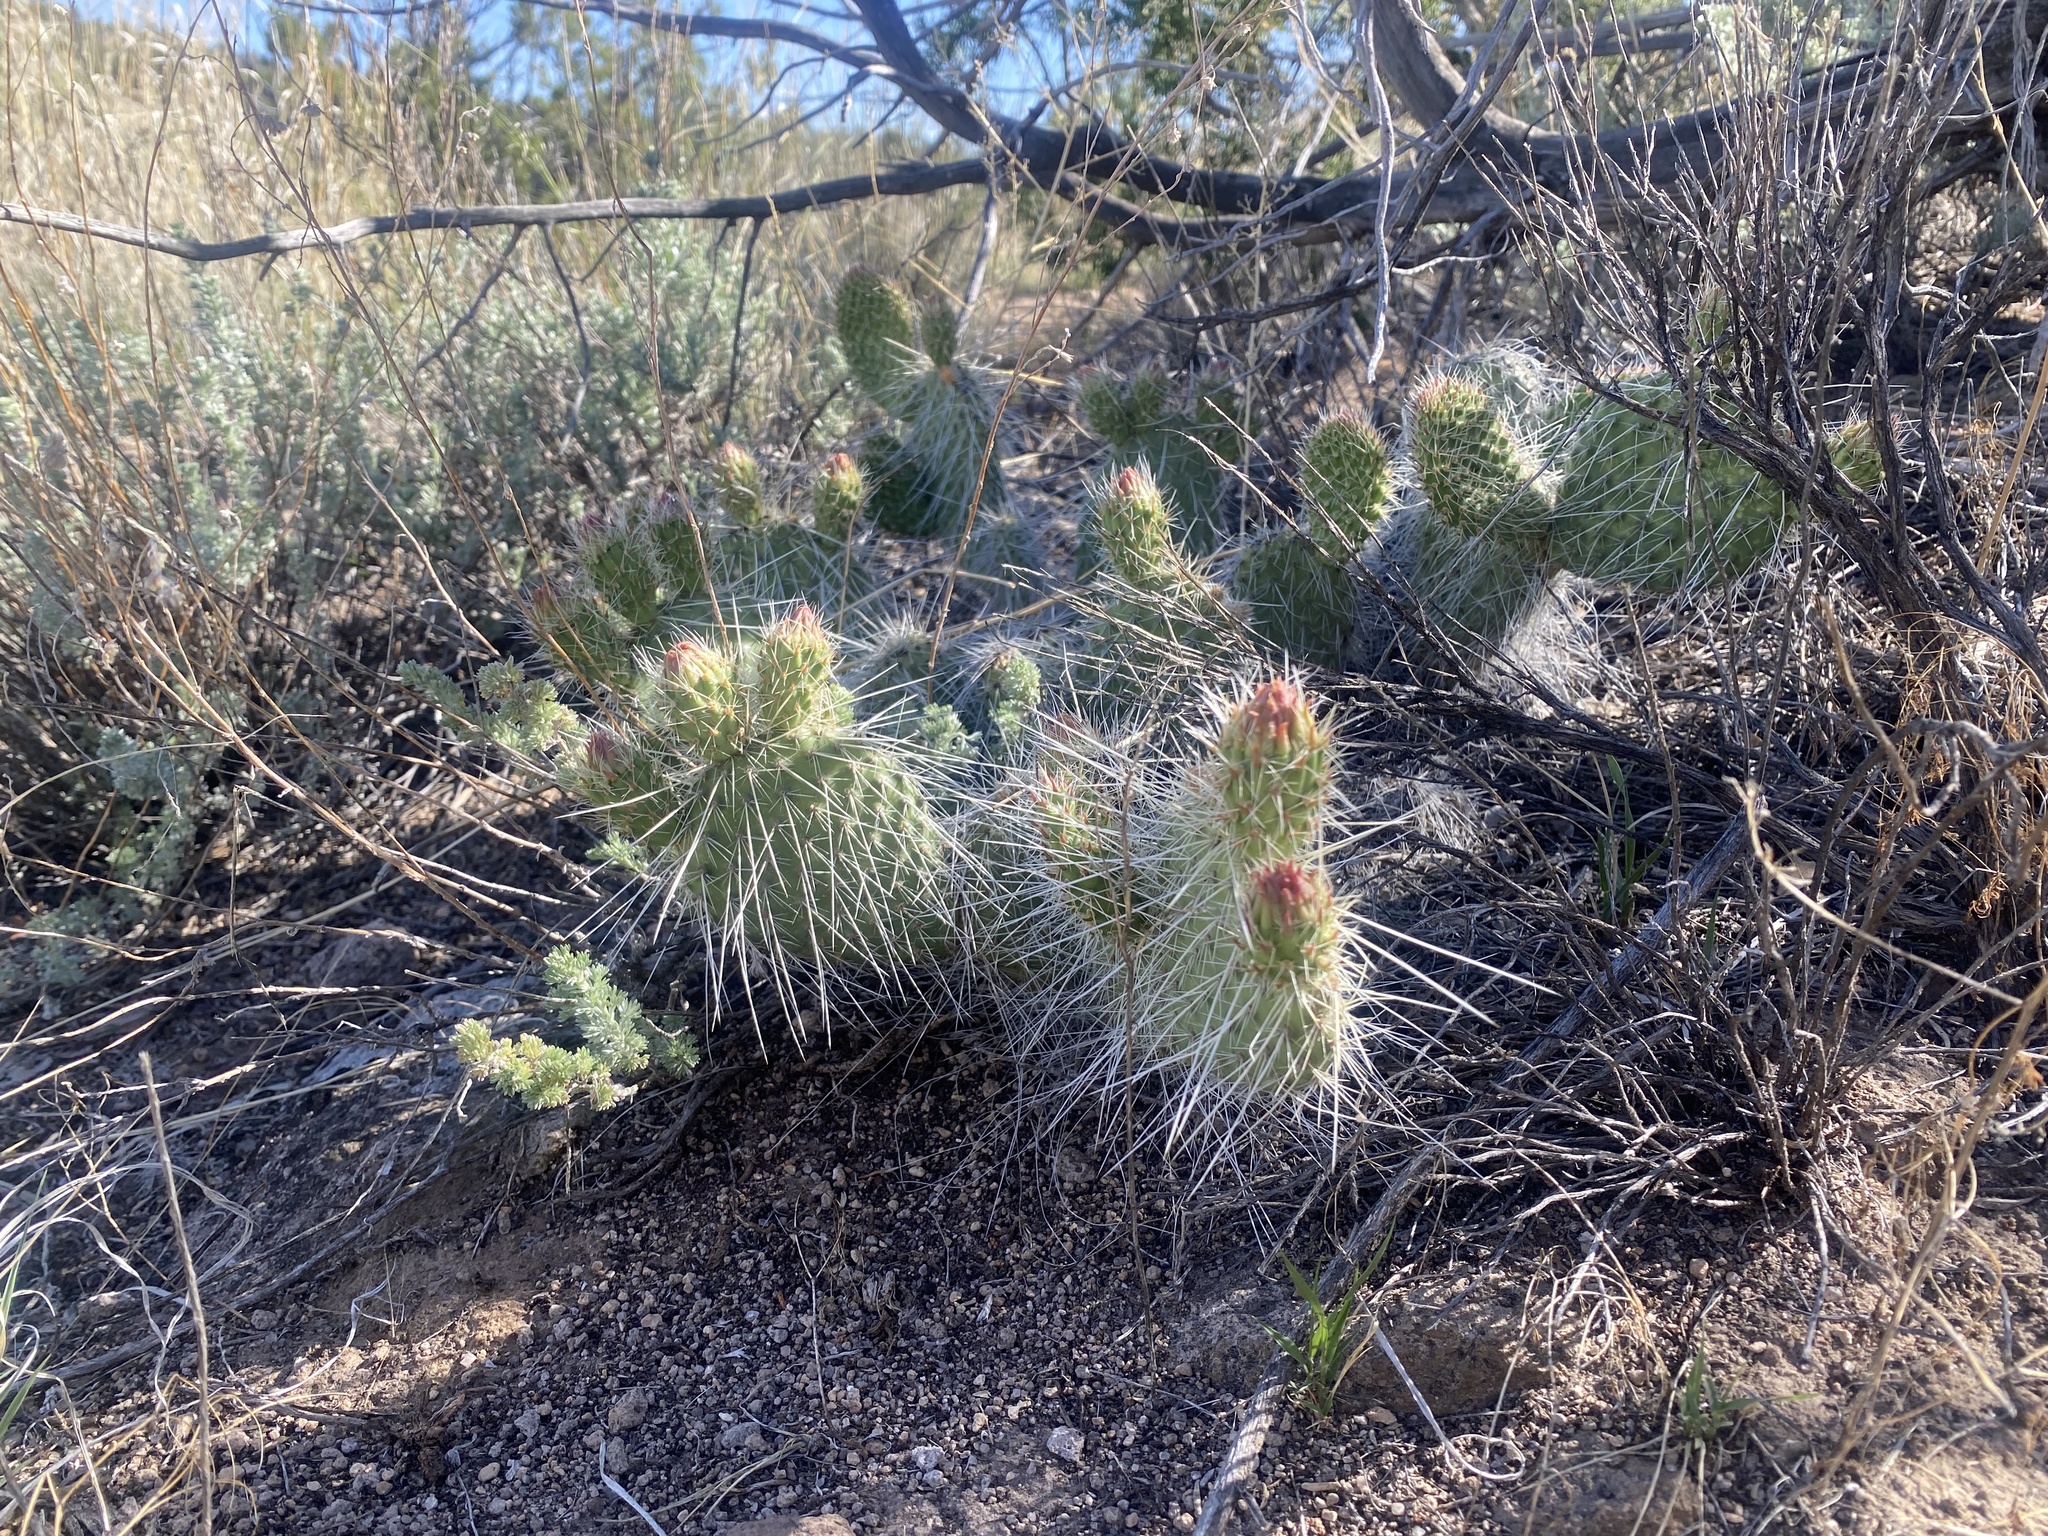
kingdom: Plantae
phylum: Tracheophyta
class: Magnoliopsida
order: Caryophyllales
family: Cactaceae
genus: Opuntia
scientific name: Opuntia polyacantha
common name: Plains prickly-pear
